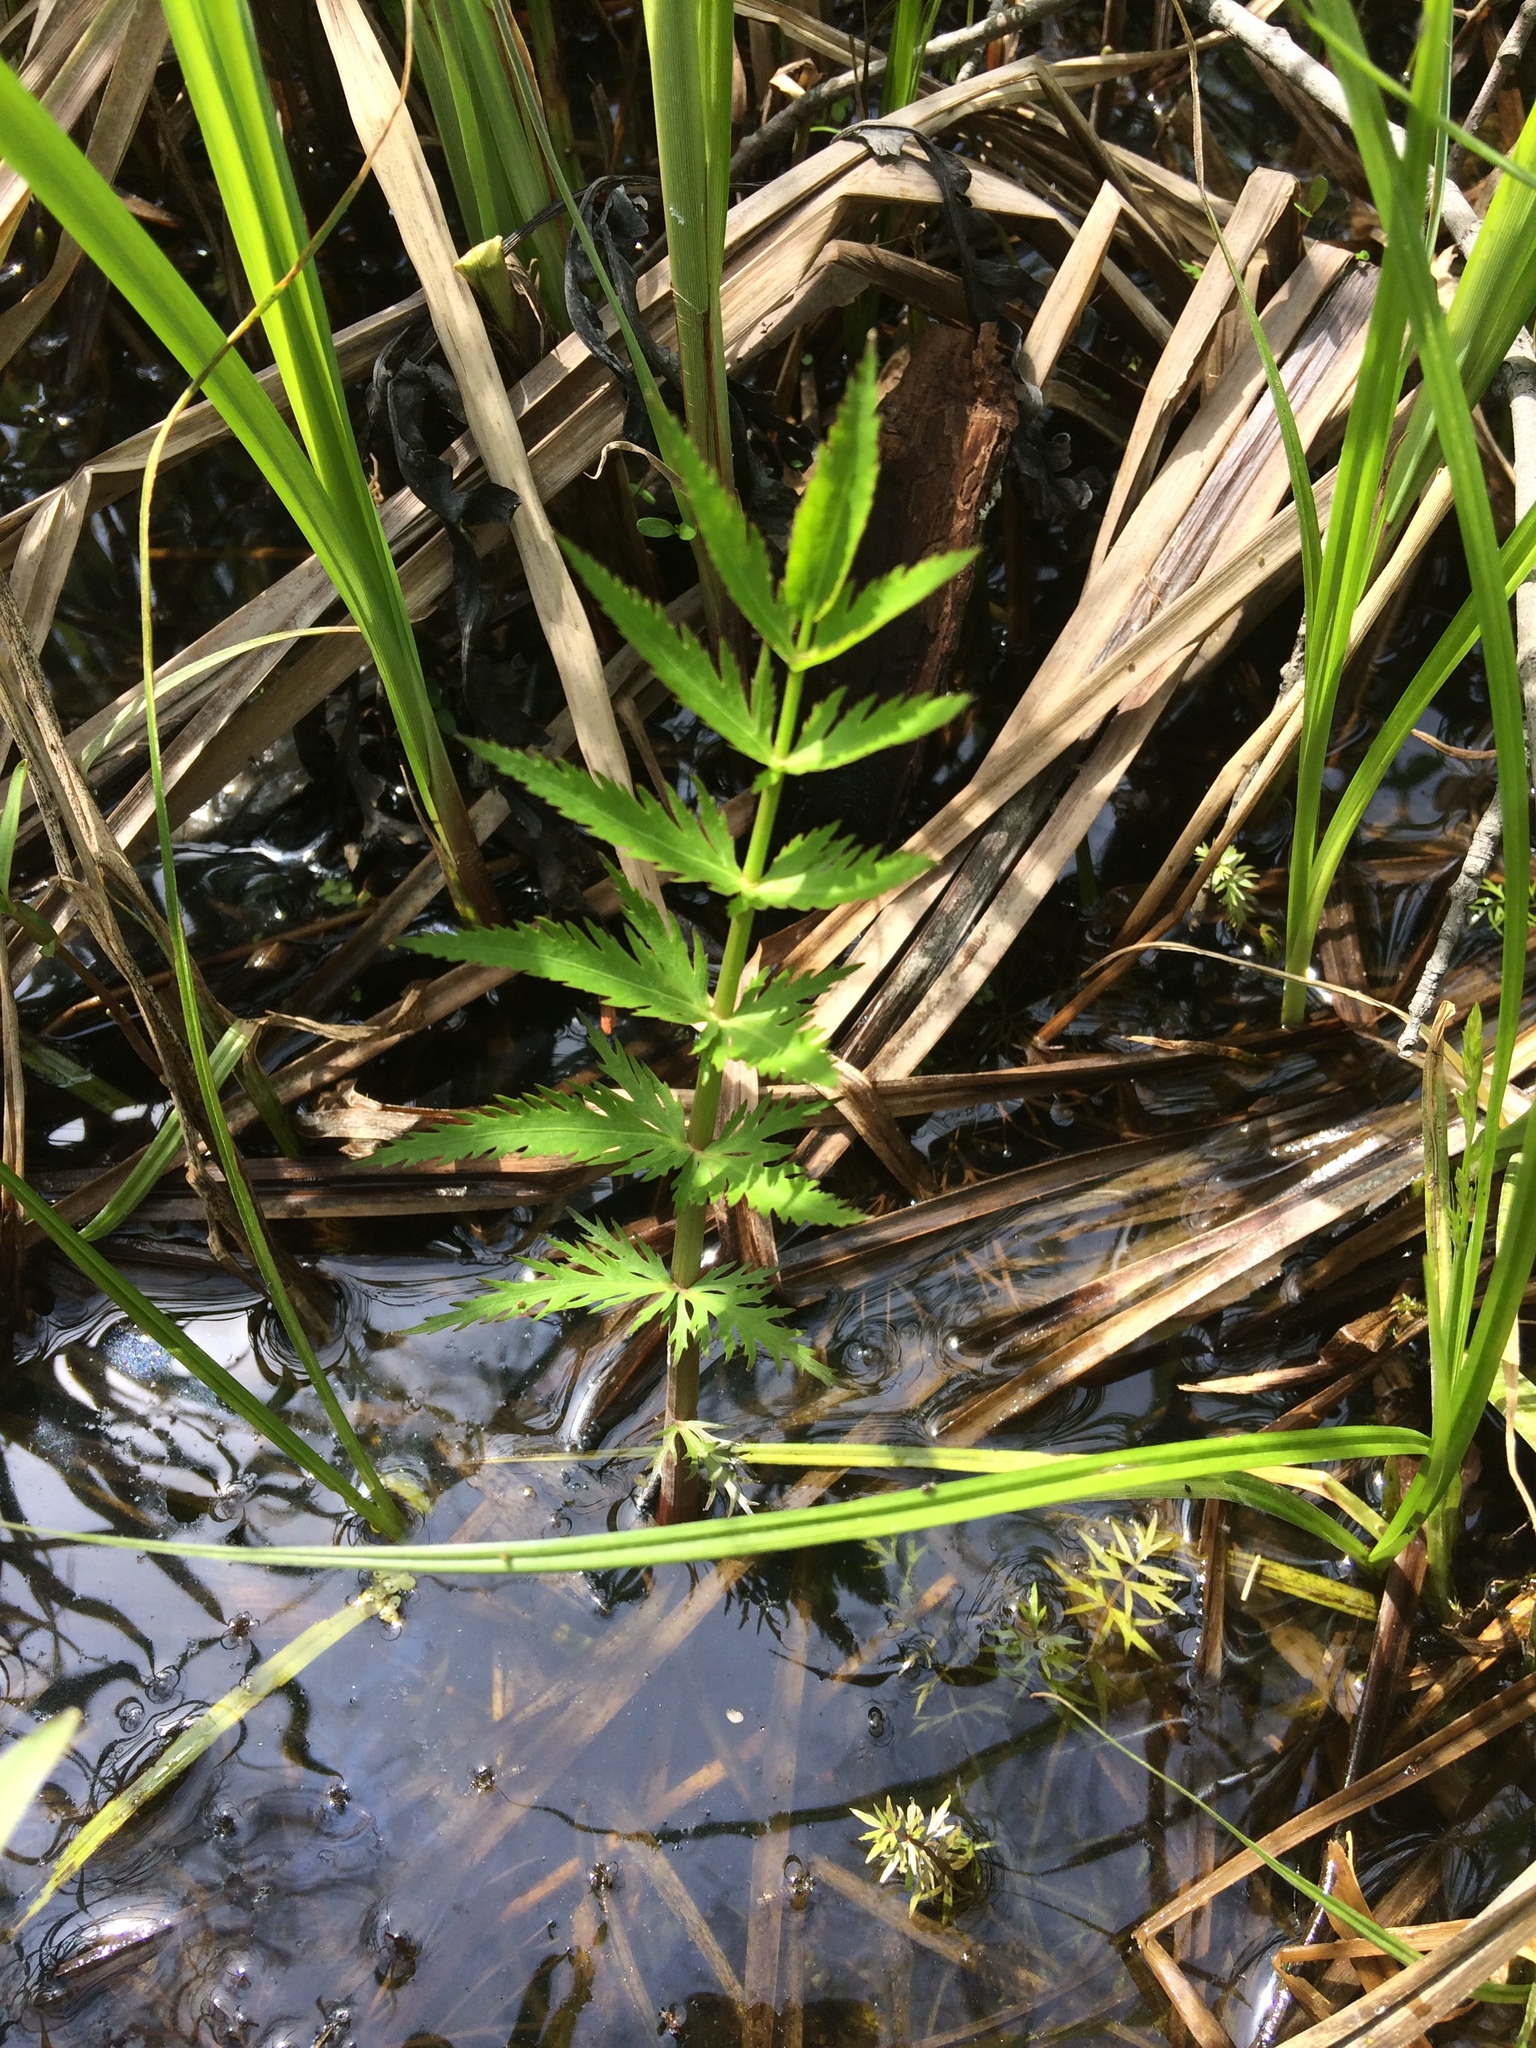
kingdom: Plantae
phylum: Tracheophyta
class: Magnoliopsida
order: Apiales
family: Apiaceae
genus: Sium
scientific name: Sium suave
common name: Hemlock water-parsnip
